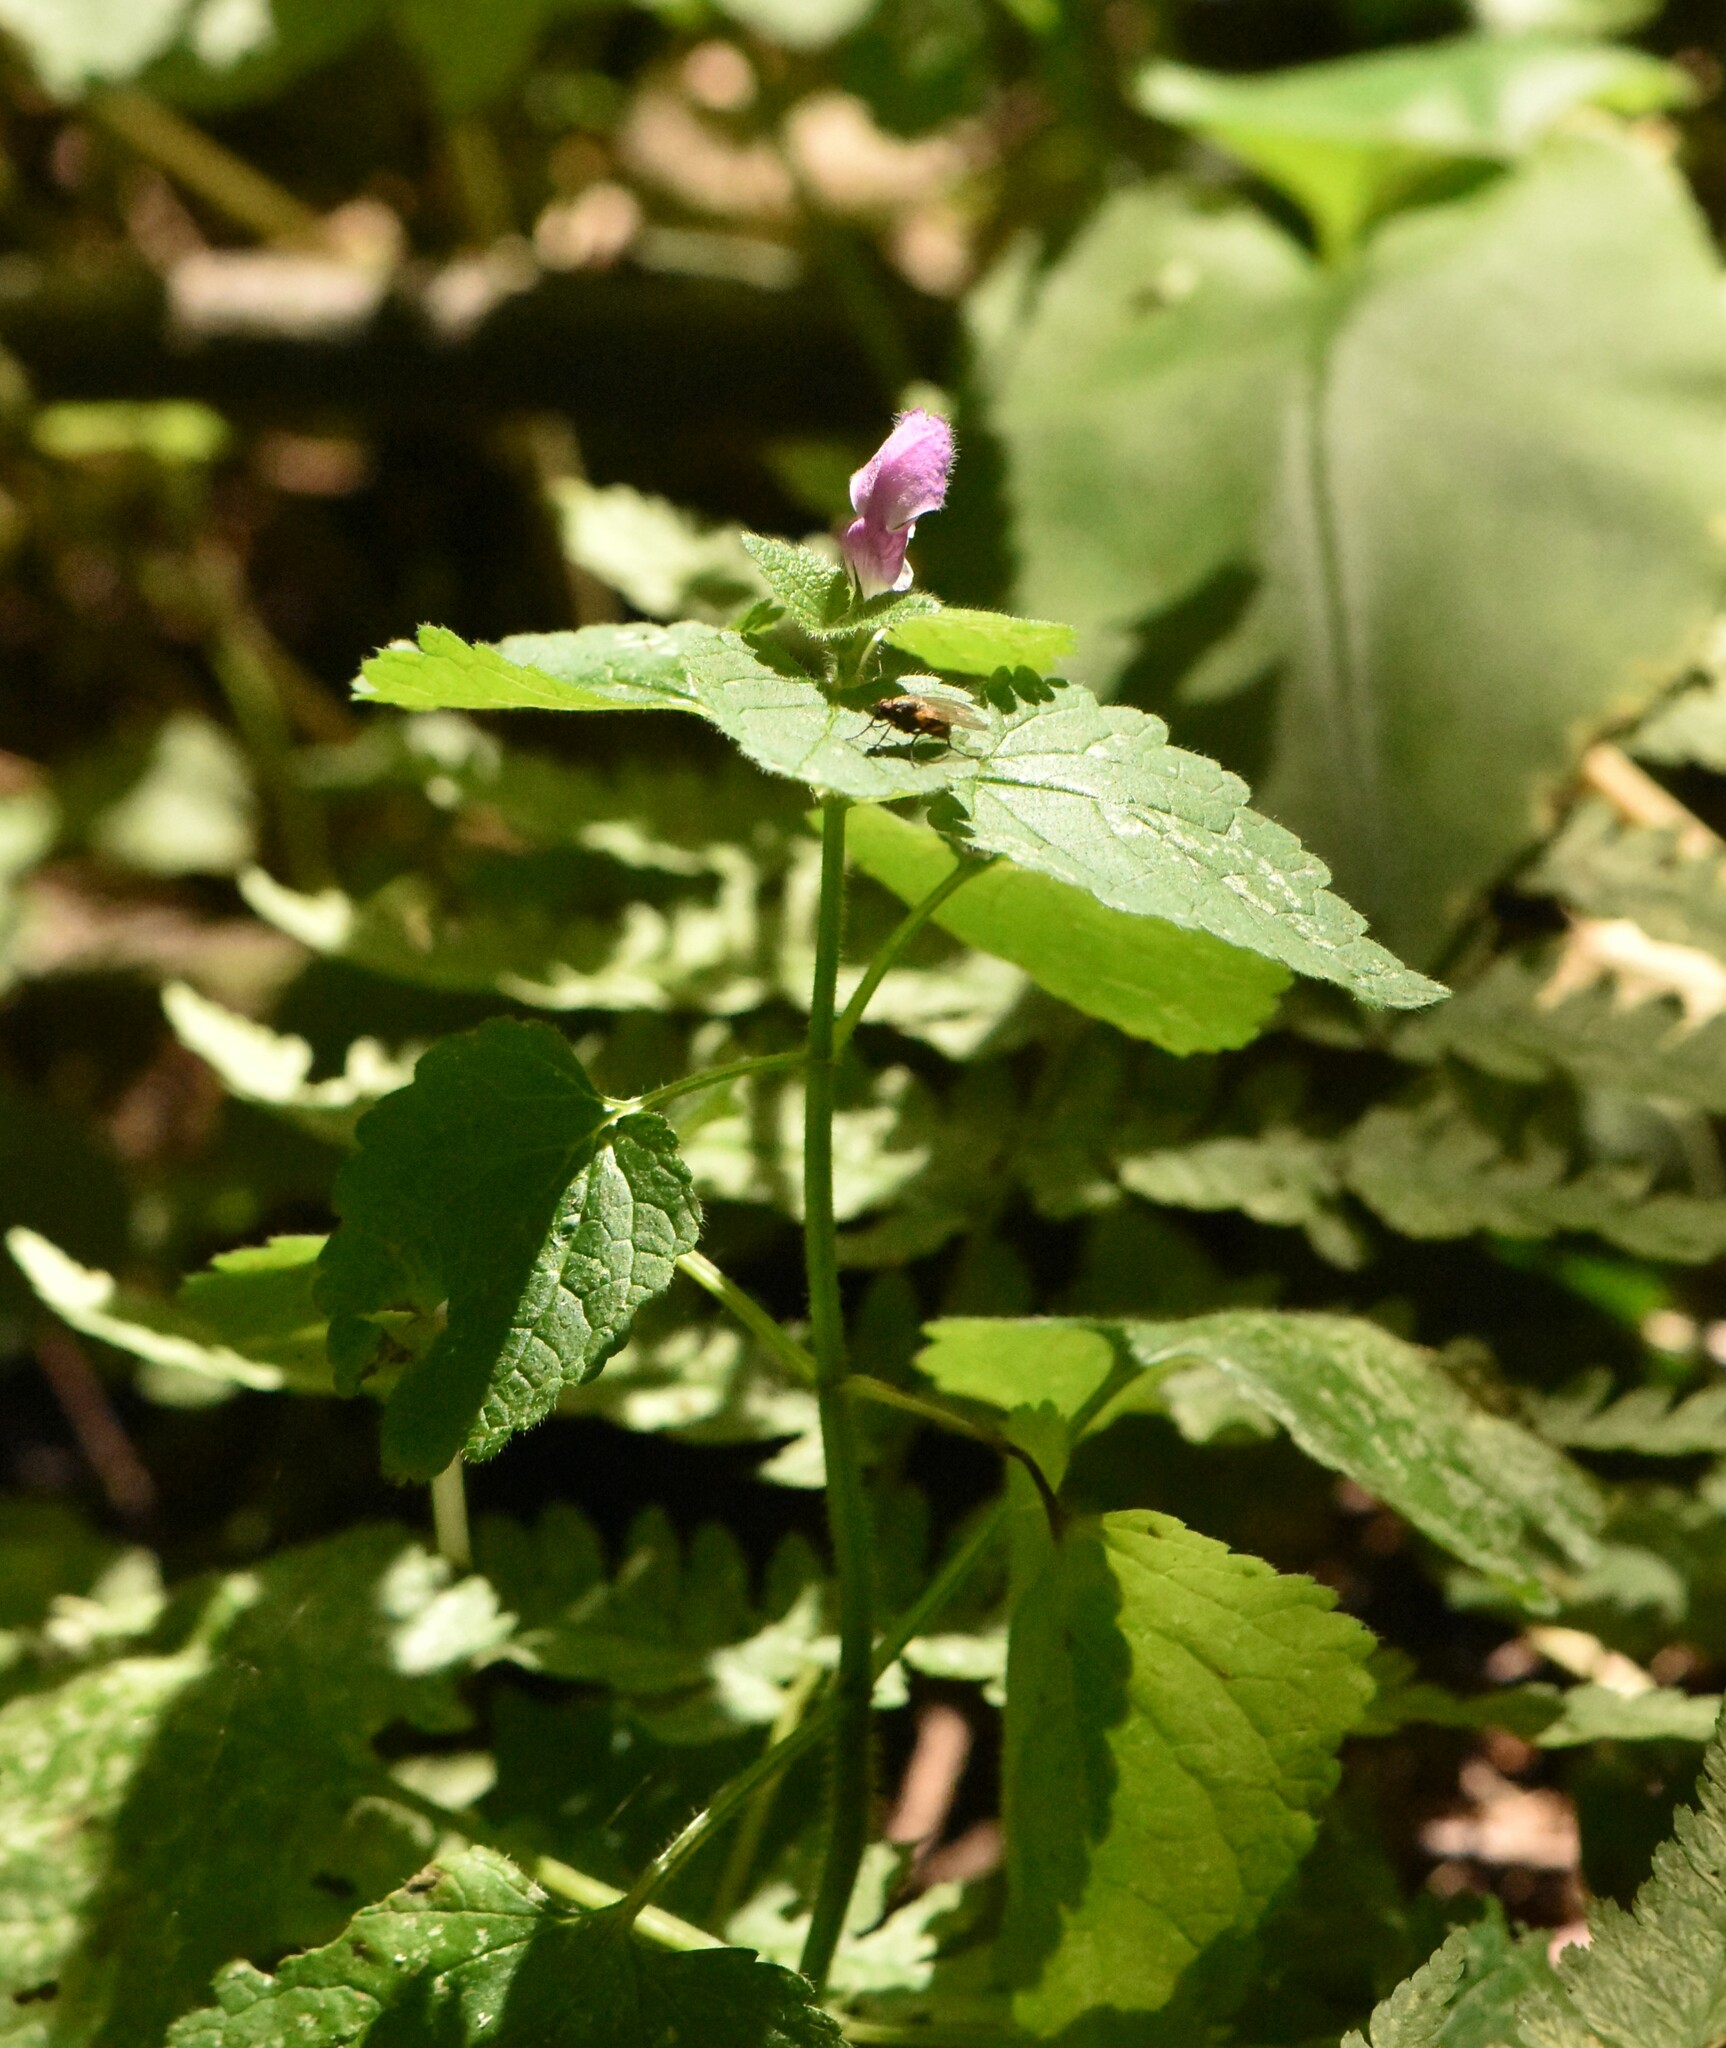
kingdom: Plantae
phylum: Tracheophyta
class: Magnoliopsida
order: Lamiales
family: Lamiaceae
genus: Lamium
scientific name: Lamium maculatum
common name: Spotted dead-nettle
